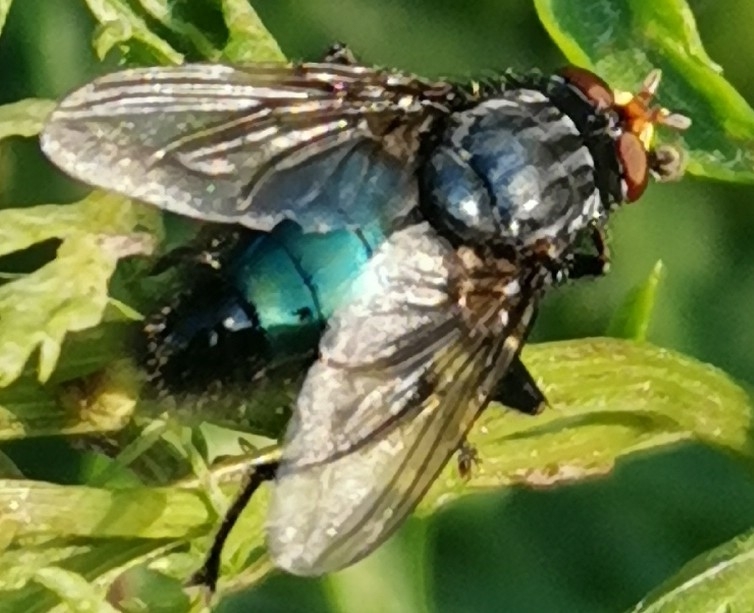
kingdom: Animalia
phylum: Arthropoda
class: Insecta
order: Diptera
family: Calliphoridae
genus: Cynomya
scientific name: Cynomya mortuorum
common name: Bluebottle blow fly
